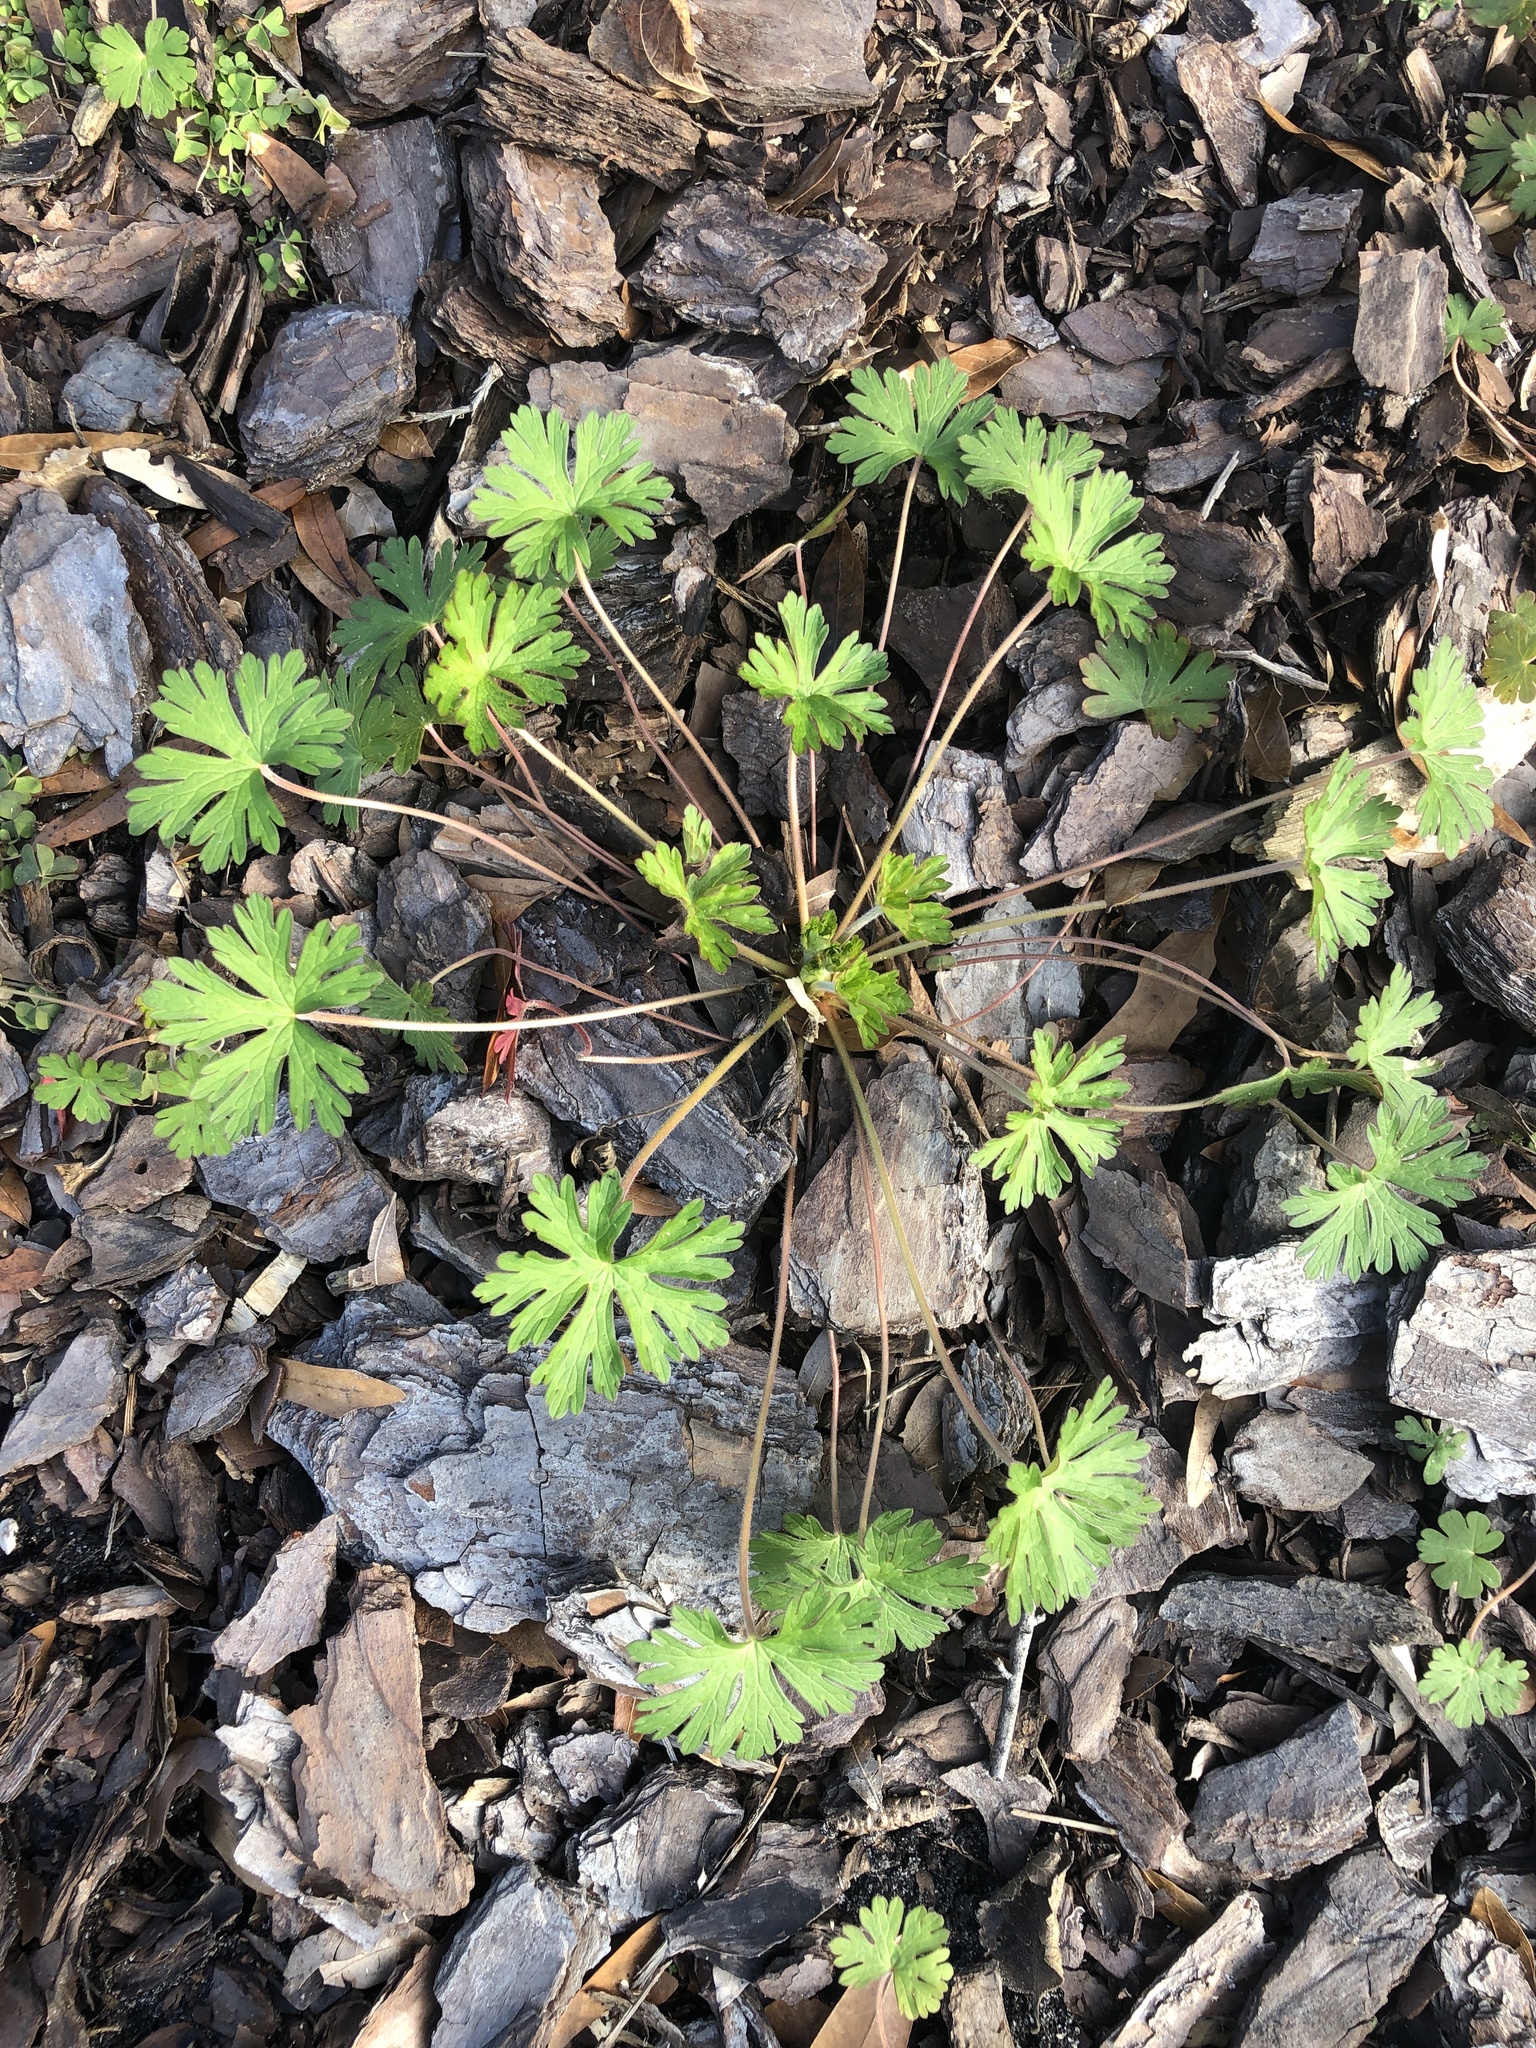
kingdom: Plantae
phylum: Tracheophyta
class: Magnoliopsida
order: Geraniales
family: Geraniaceae
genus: Geranium
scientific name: Geranium carolinianum
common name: Carolina crane's-bill
